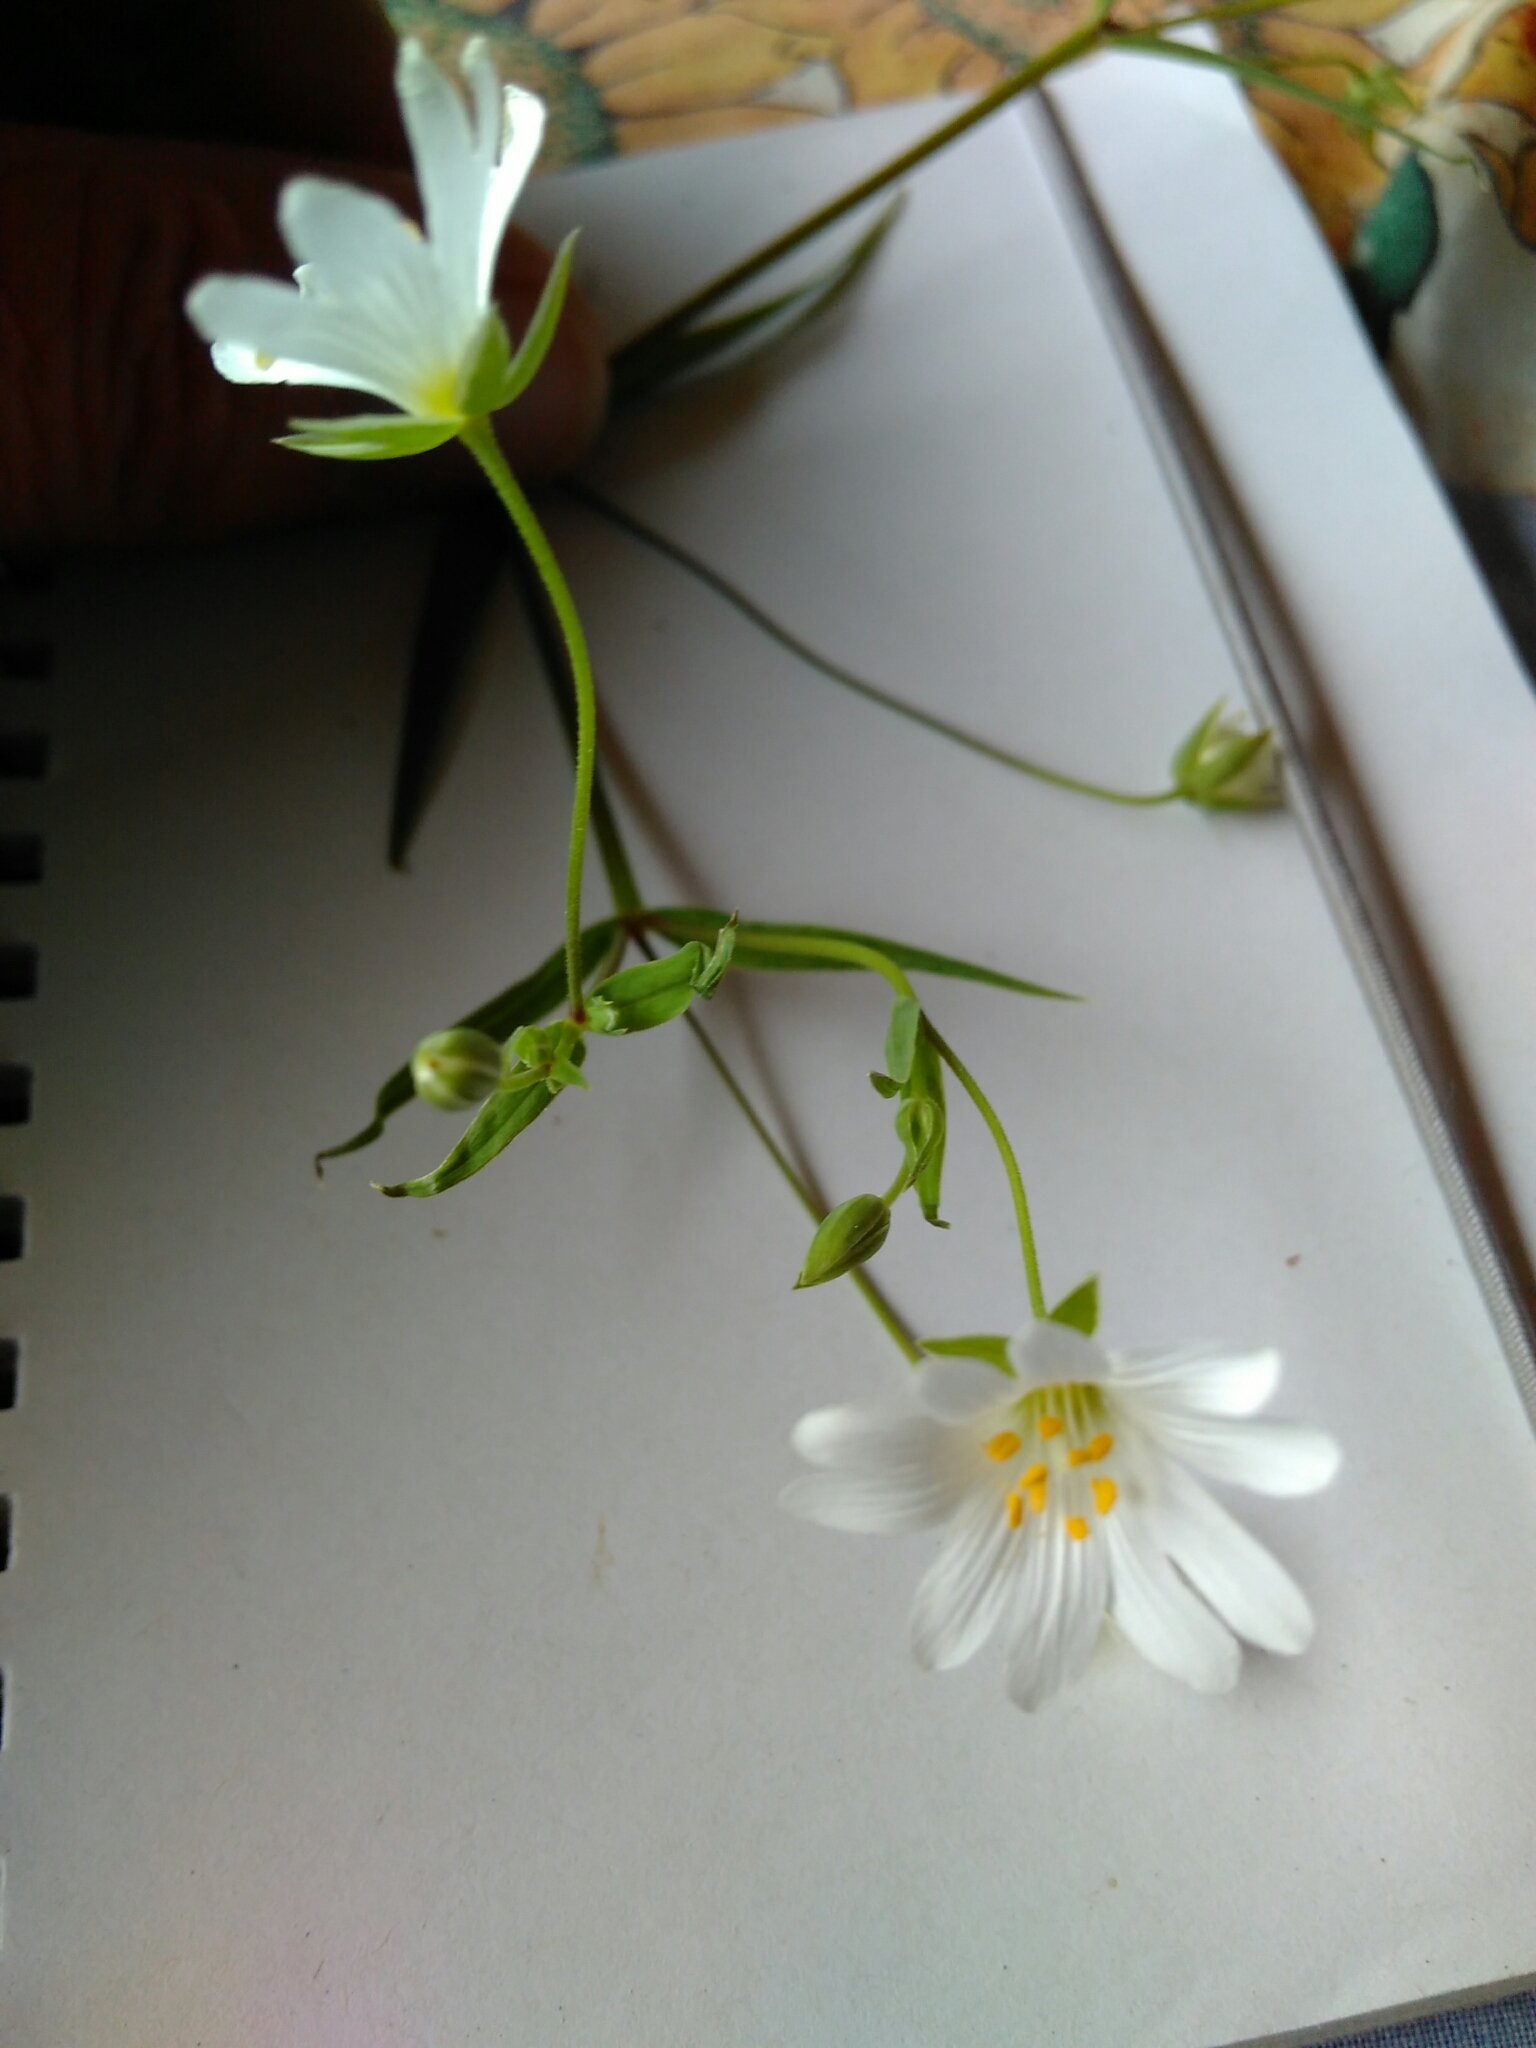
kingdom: Plantae
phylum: Tracheophyta
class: Magnoliopsida
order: Caryophyllales
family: Caryophyllaceae
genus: Rabelera
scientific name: Rabelera holostea
